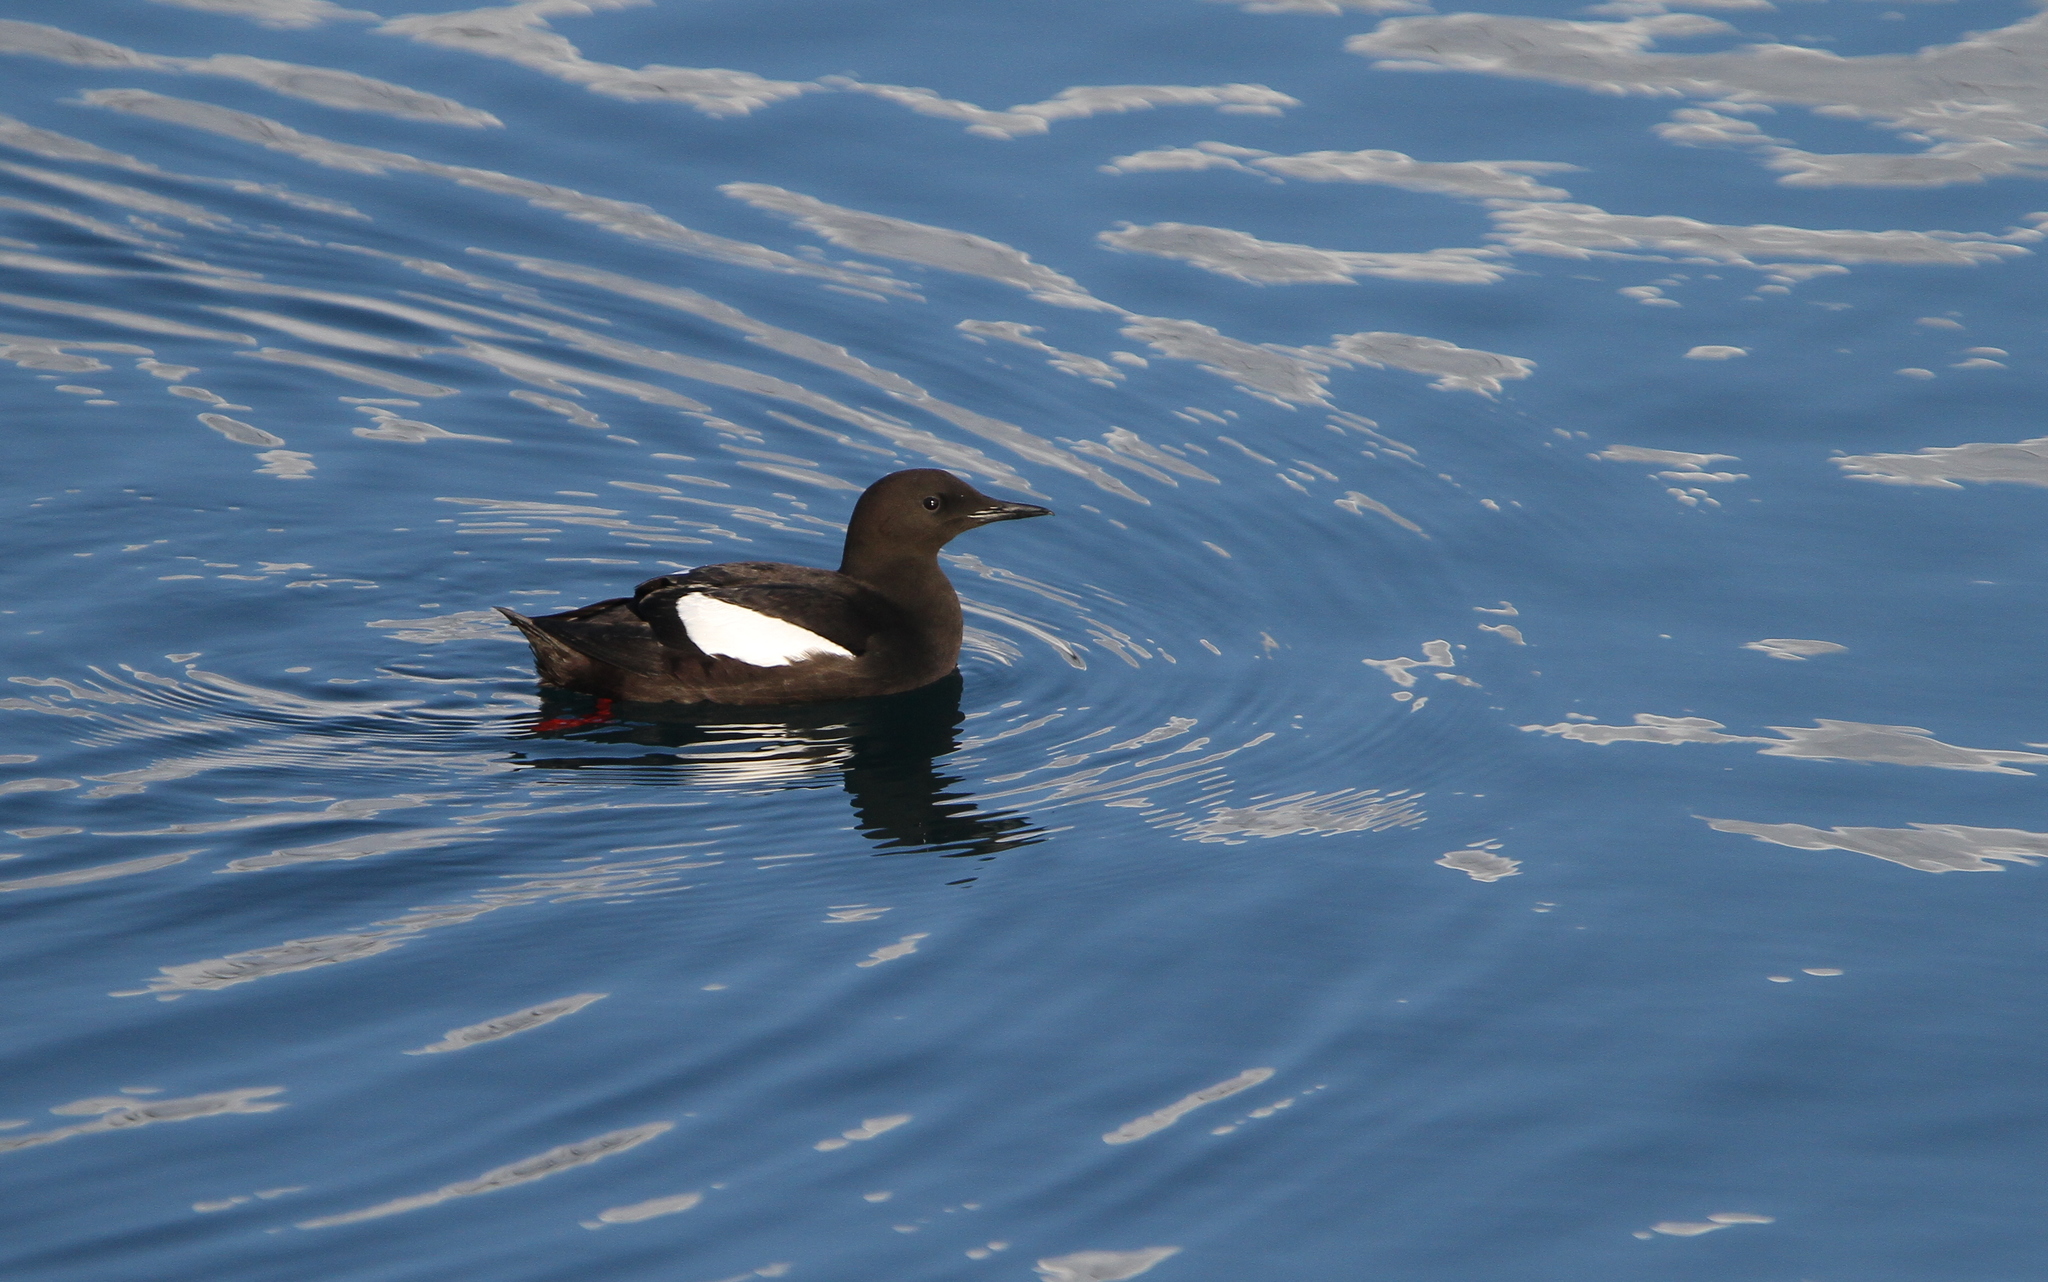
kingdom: Animalia
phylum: Chordata
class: Aves
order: Charadriiformes
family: Alcidae
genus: Cepphus
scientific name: Cepphus grylle
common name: Black guillemot
